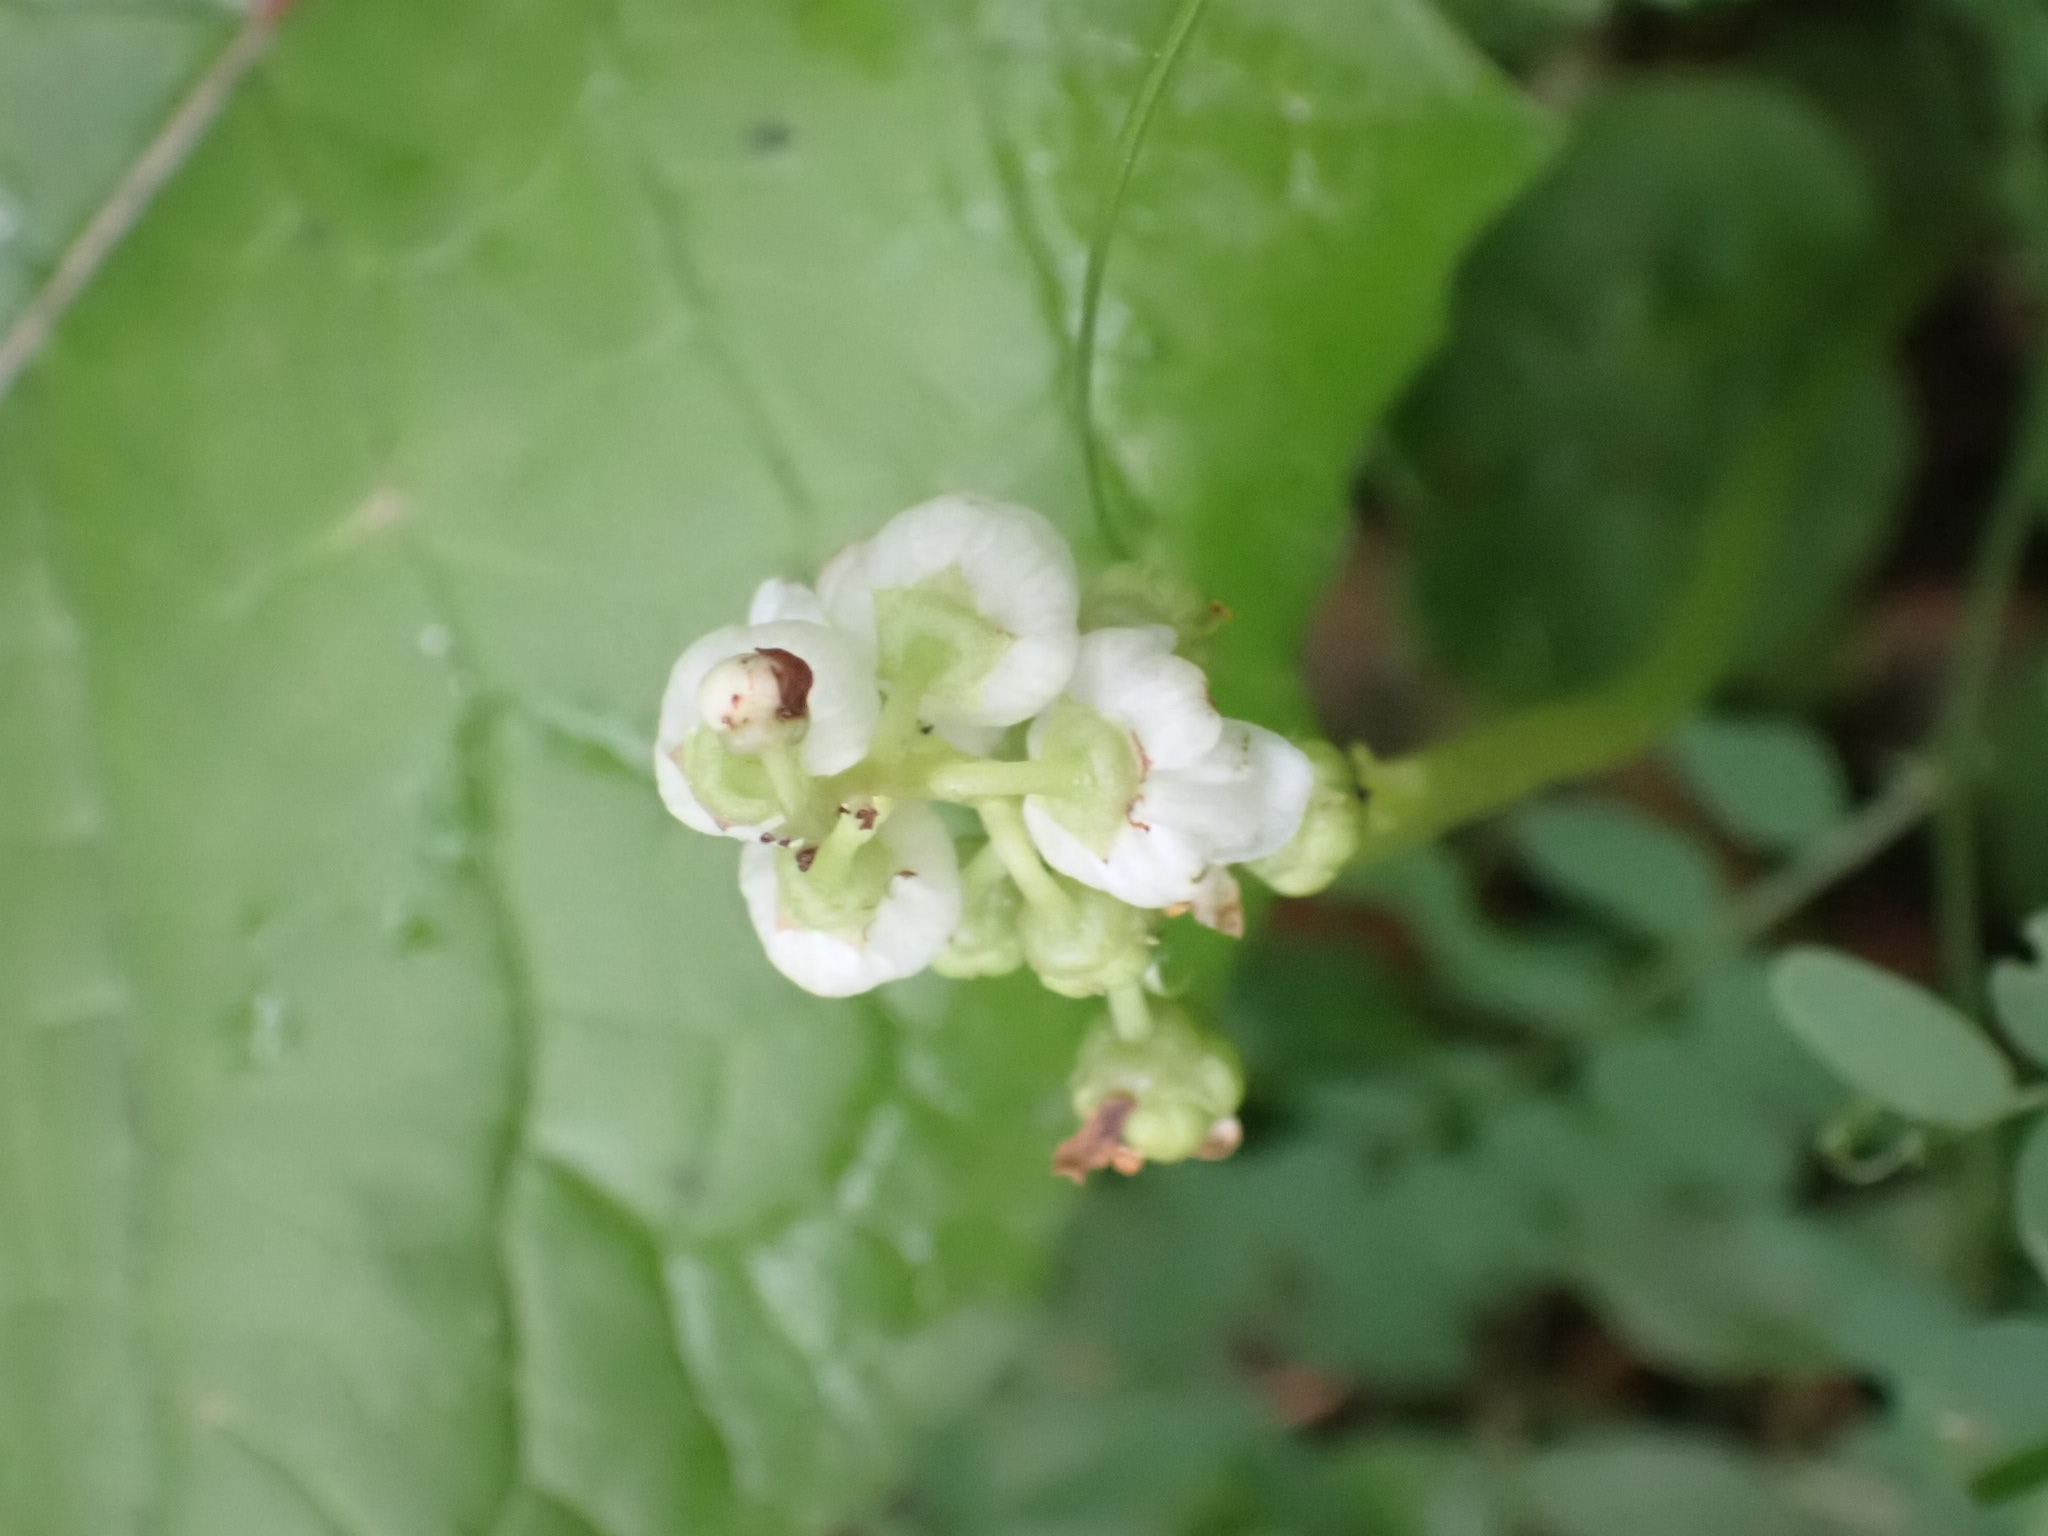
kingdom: Plantae
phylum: Tracheophyta
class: Magnoliopsida
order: Ericales
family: Ericaceae
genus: Pyrola
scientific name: Pyrola minor
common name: Common wintergreen
